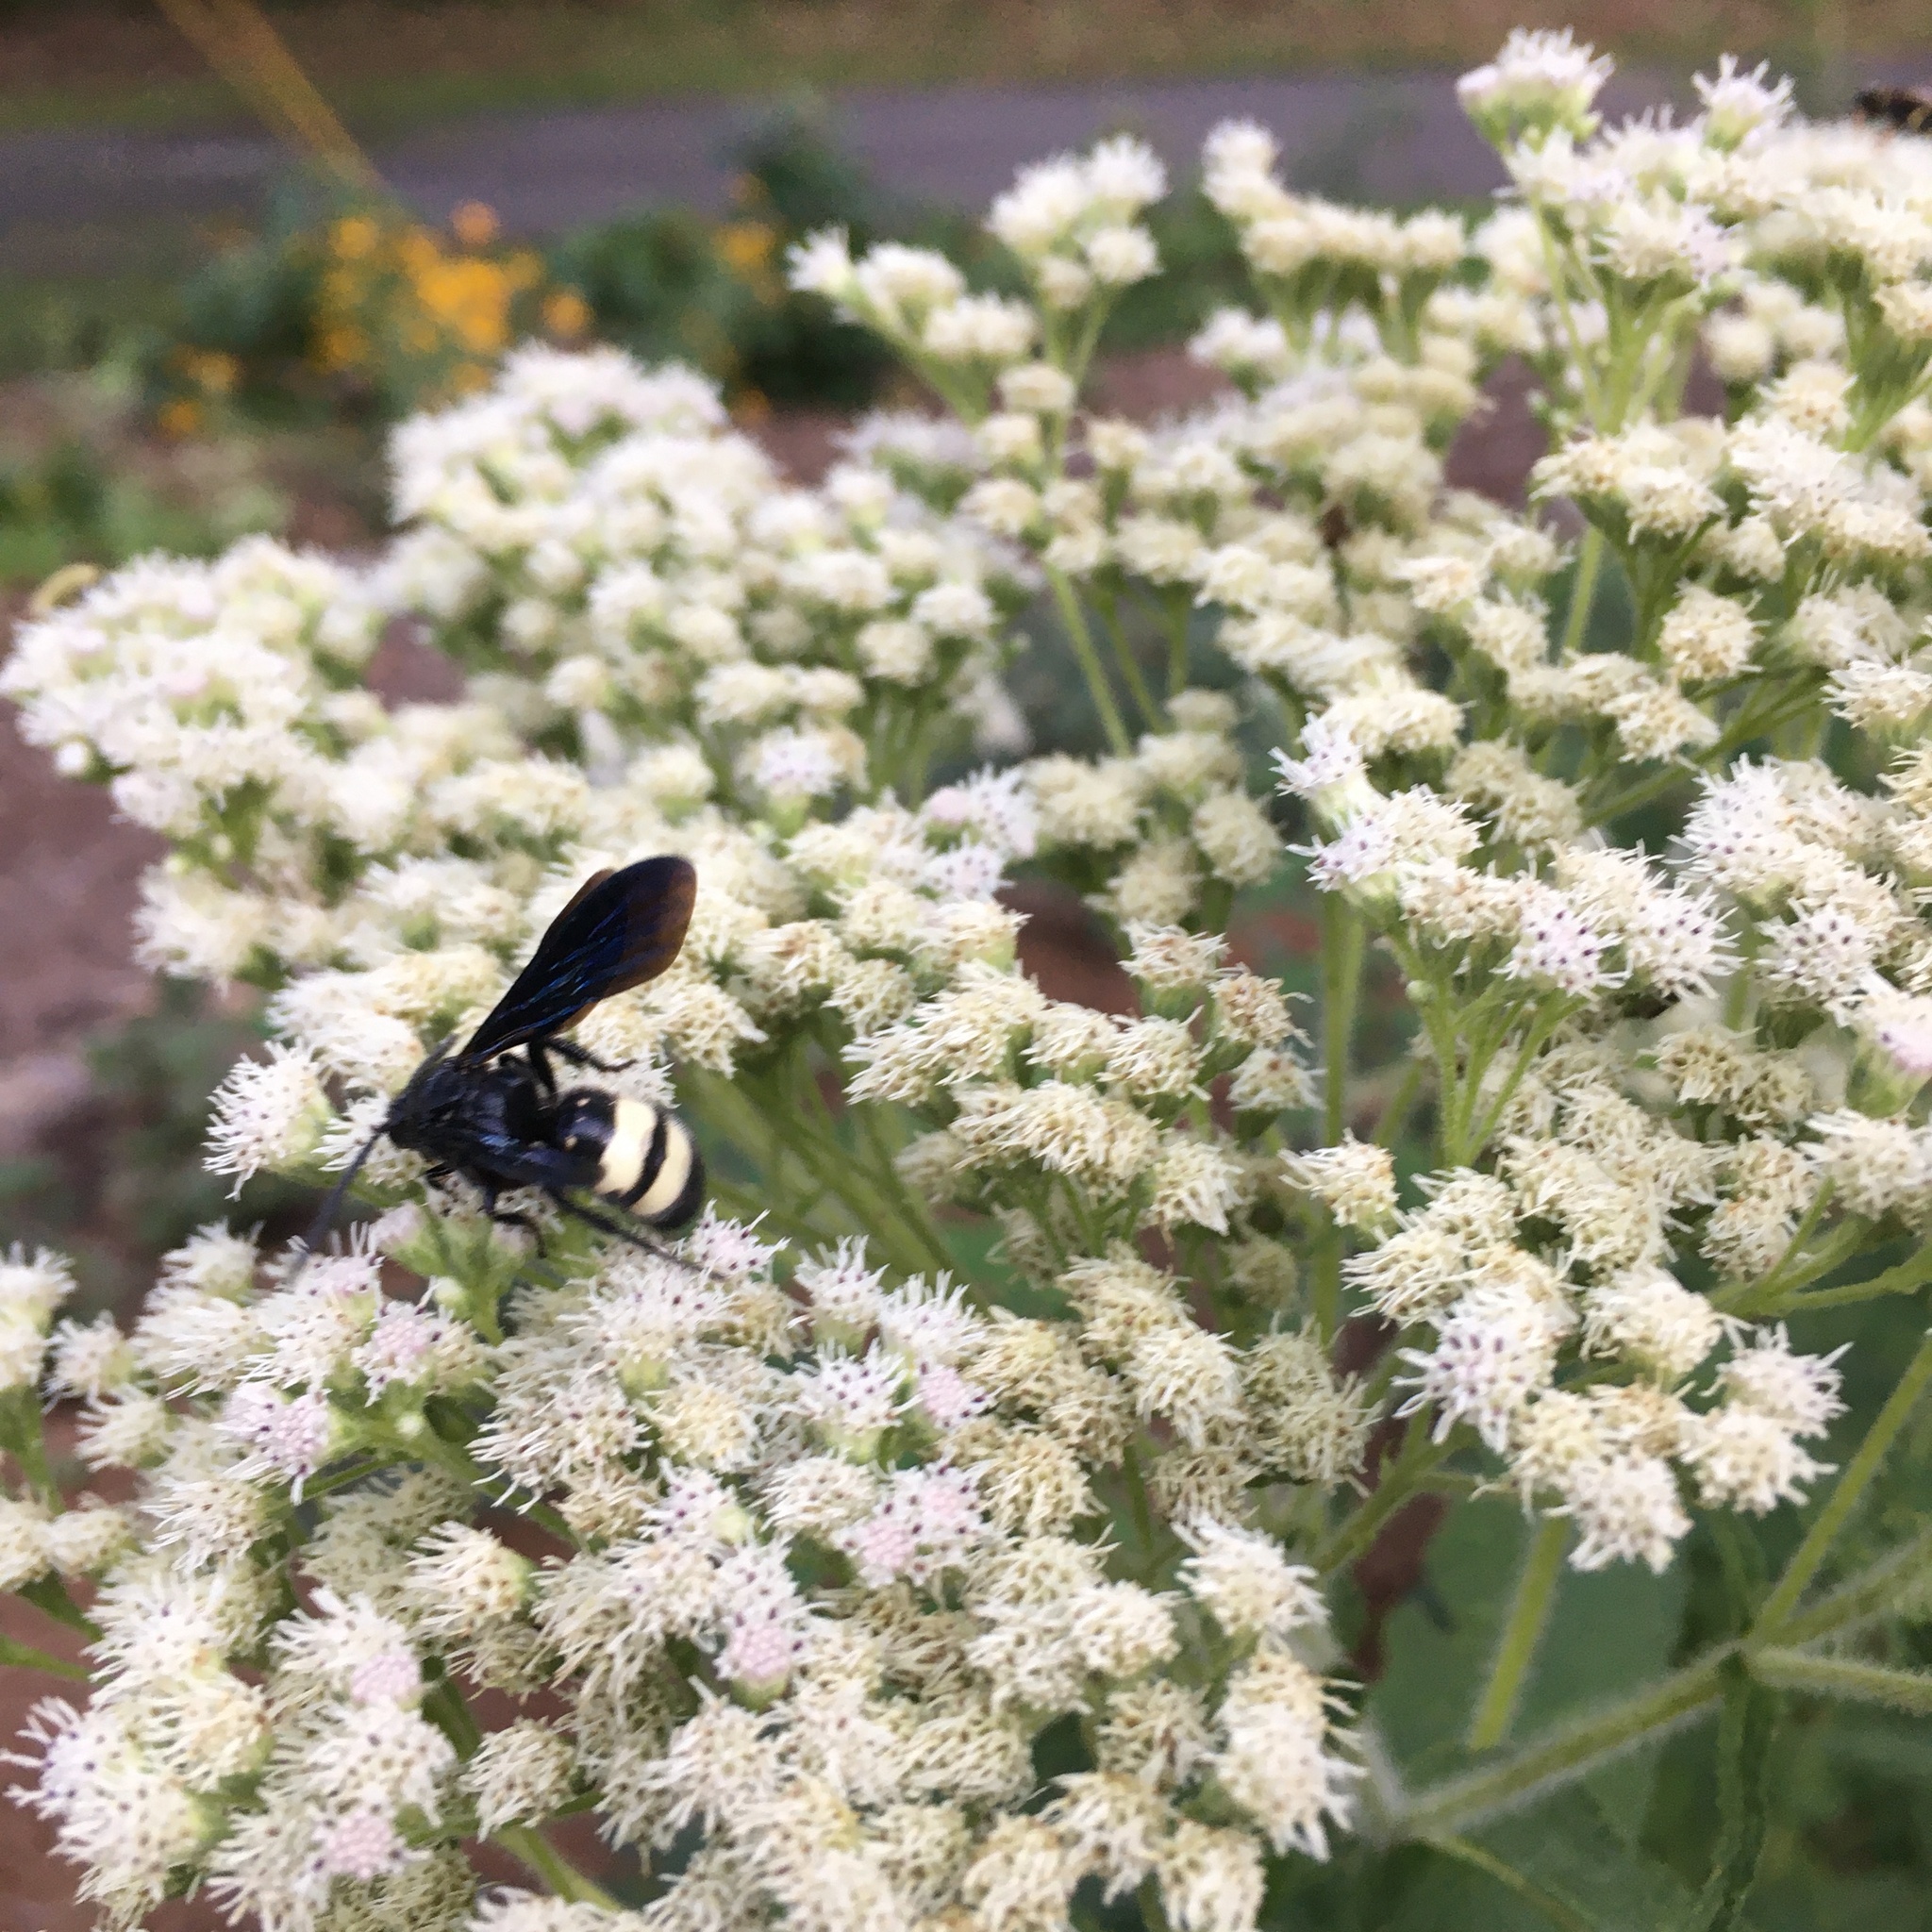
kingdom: Animalia
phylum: Arthropoda
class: Insecta
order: Hymenoptera
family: Scoliidae
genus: Scolia
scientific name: Scolia bicincta
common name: Double-banded scoliid wasp
